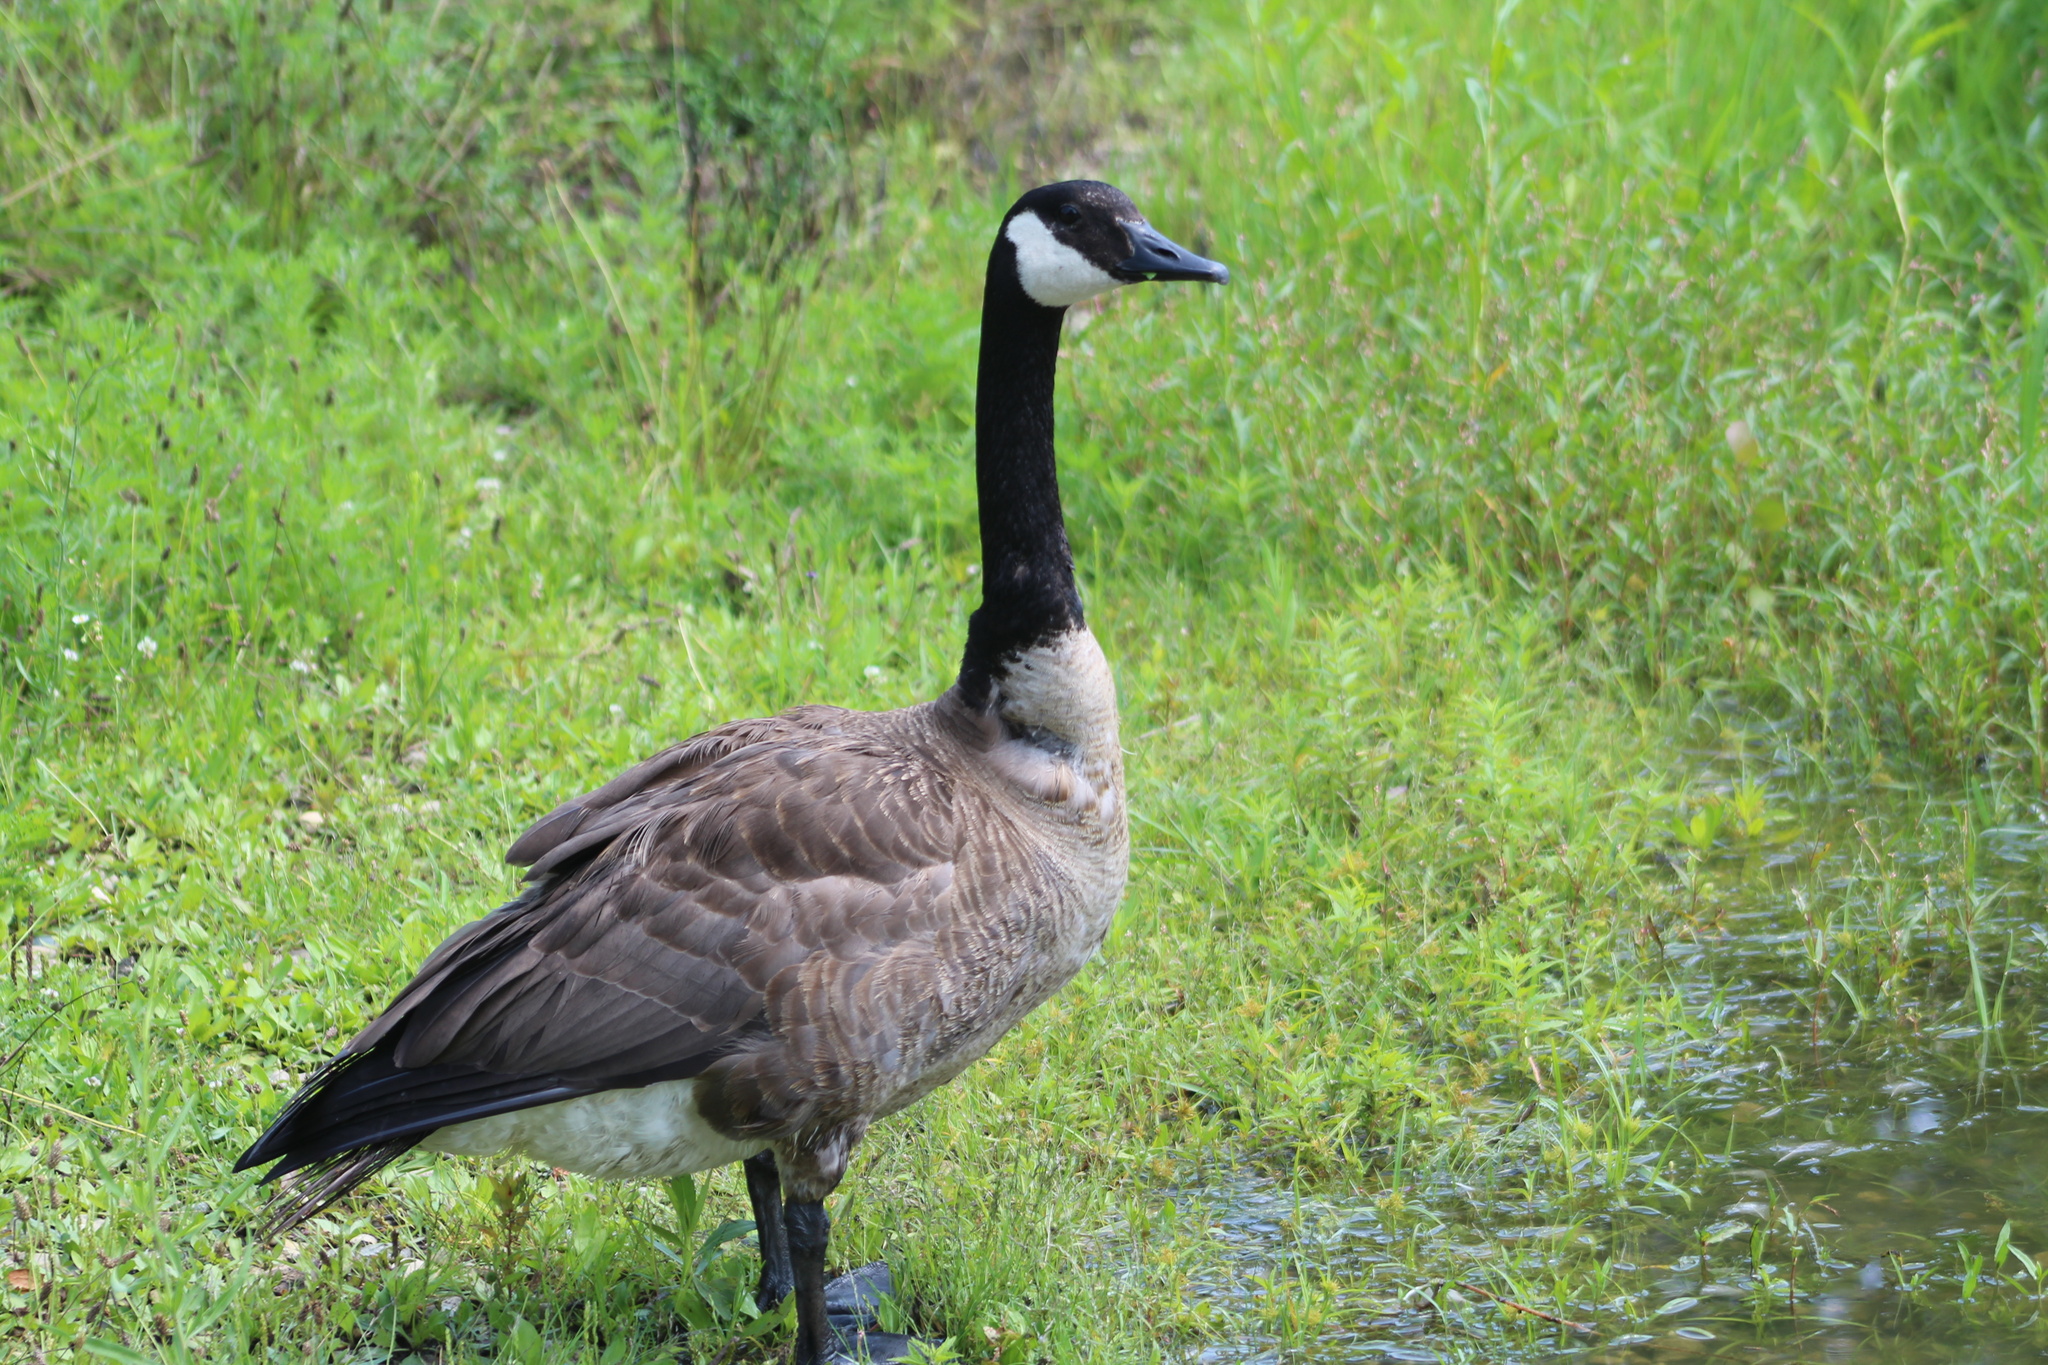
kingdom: Animalia
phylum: Chordata
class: Aves
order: Anseriformes
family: Anatidae
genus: Branta
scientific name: Branta canadensis
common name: Canada goose
